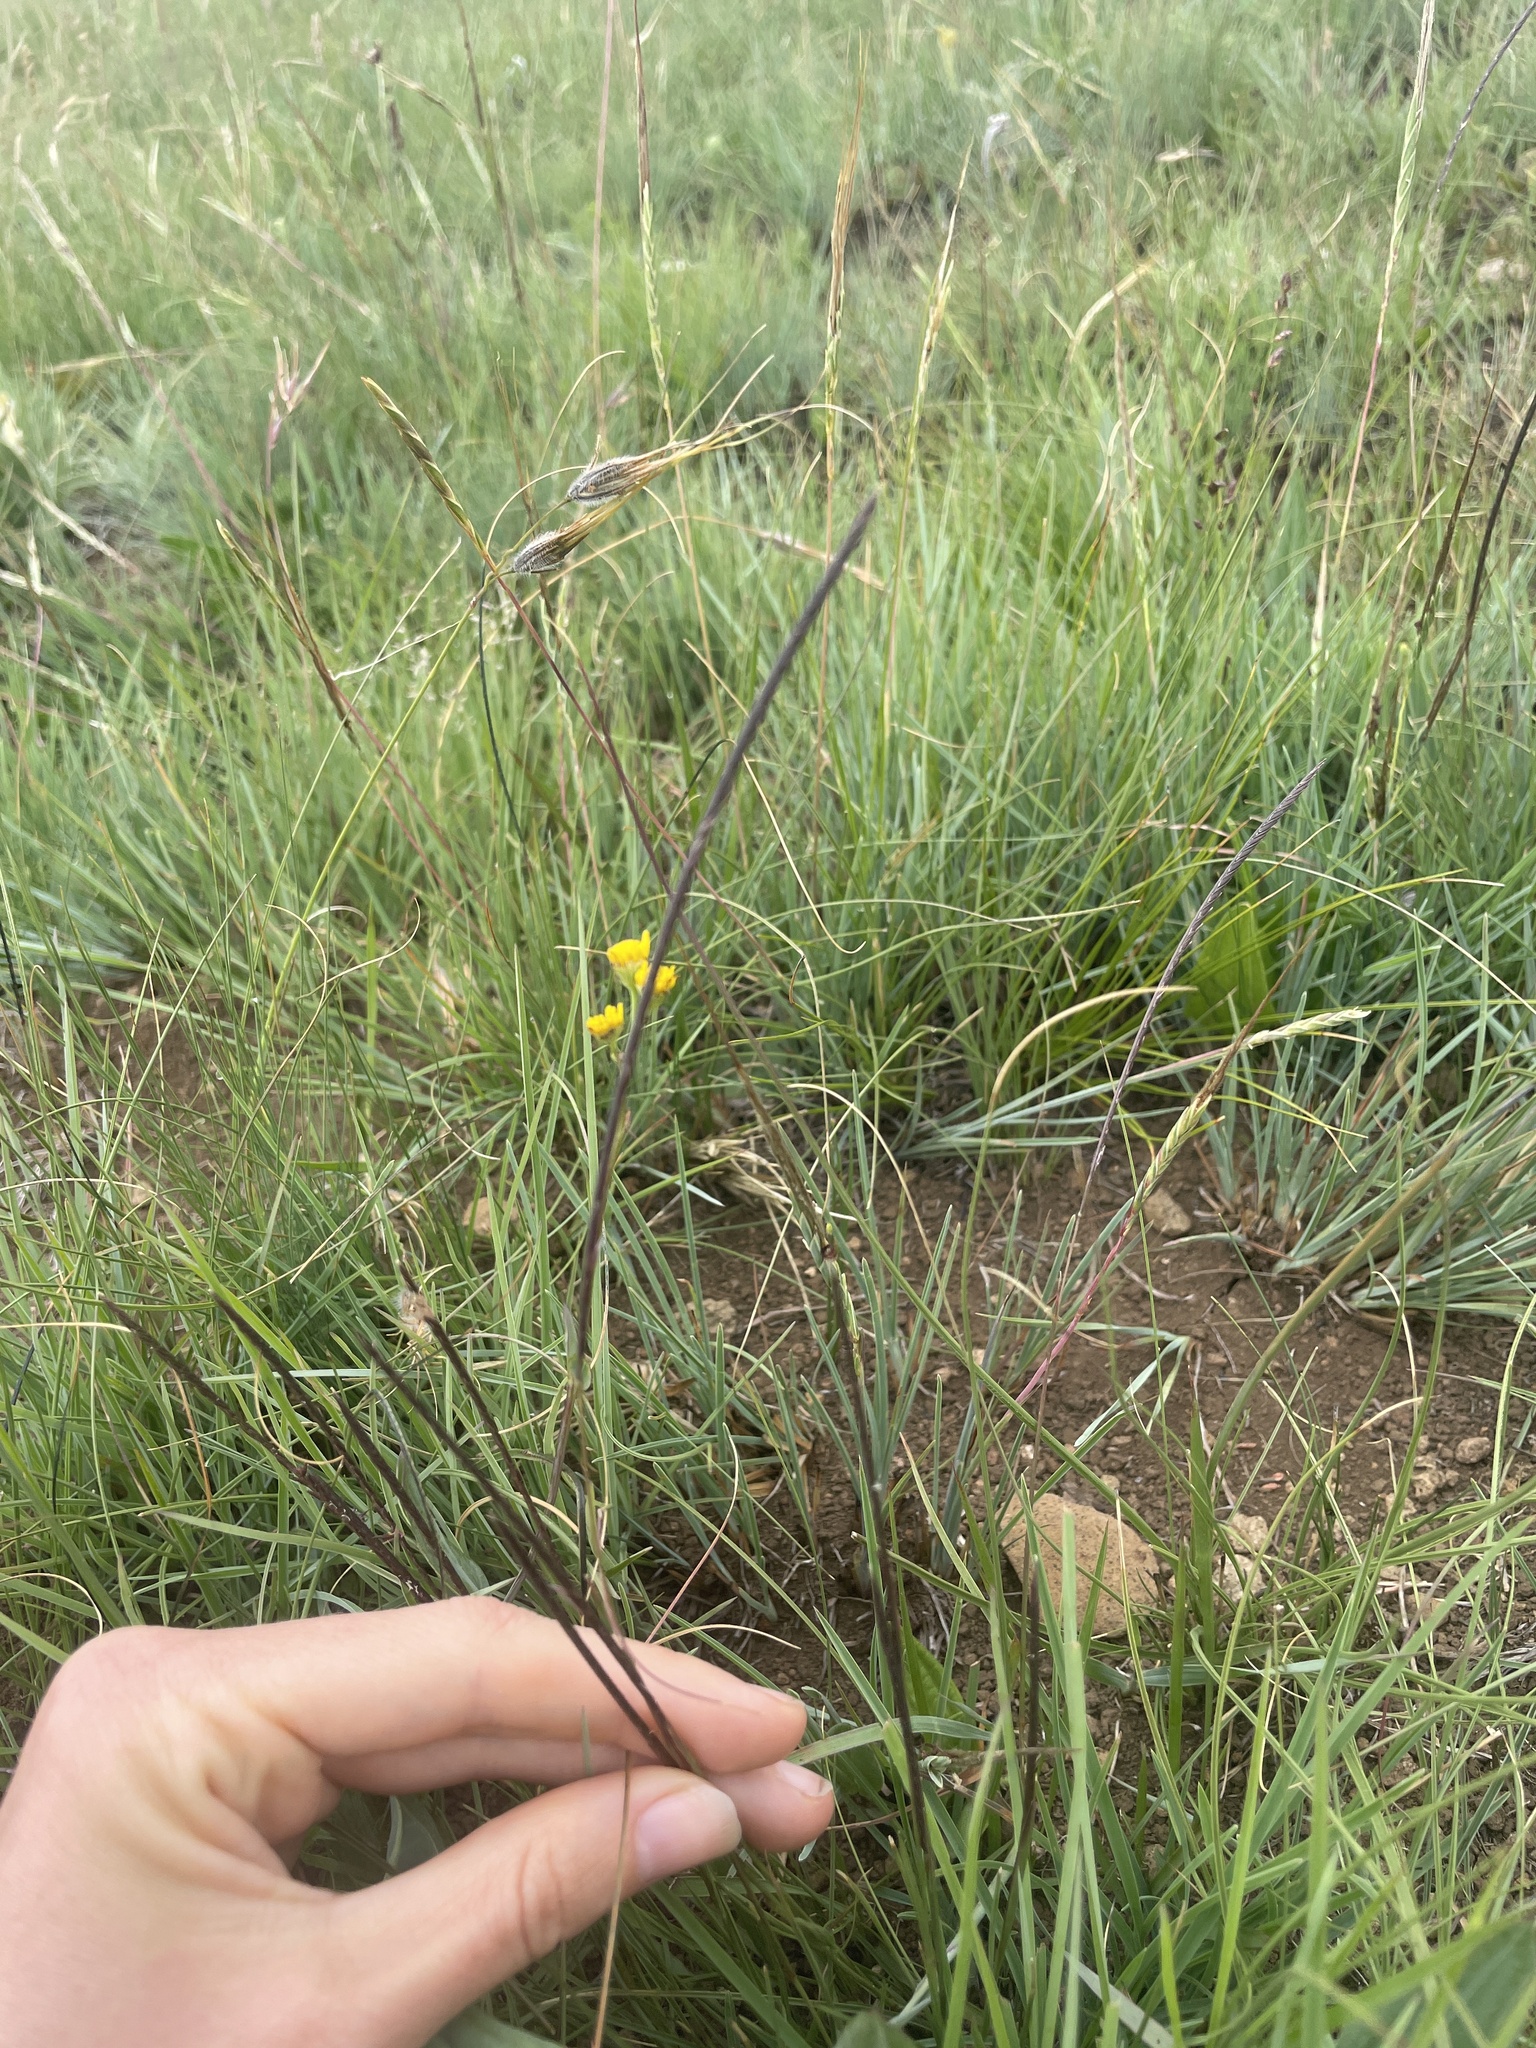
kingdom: Plantae
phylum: Tracheophyta
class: Liliopsida
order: Poales
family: Poaceae
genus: Microchloa
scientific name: Microchloa caffra
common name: Pincushion grass
